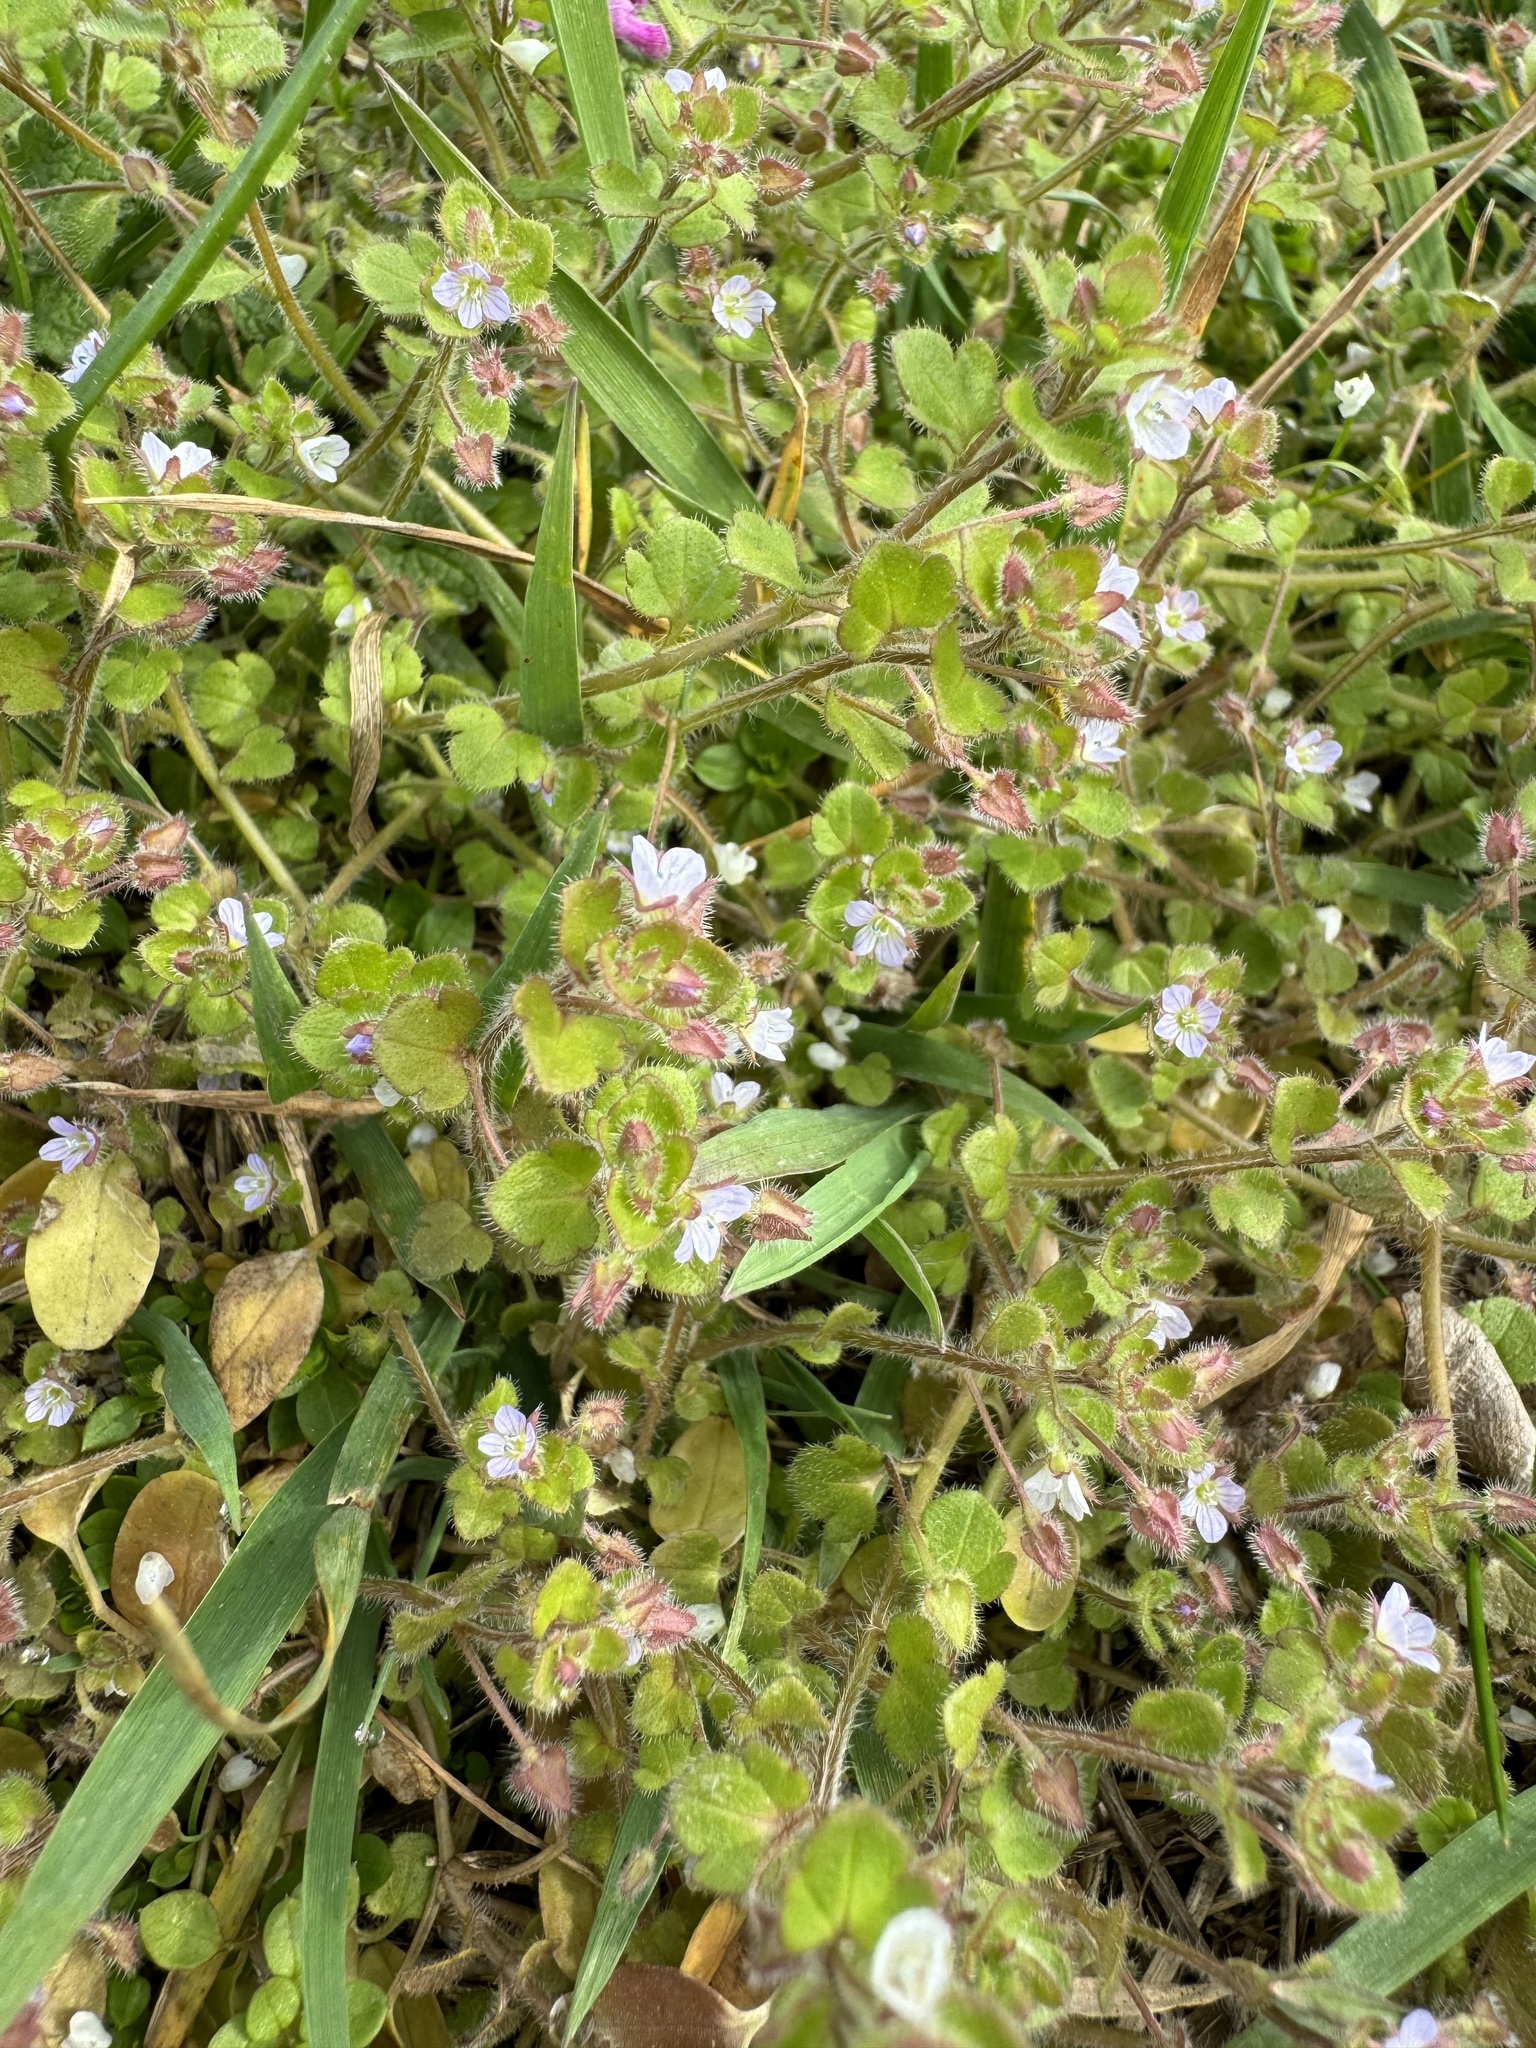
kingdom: Plantae
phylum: Tracheophyta
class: Magnoliopsida
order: Lamiales
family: Plantaginaceae
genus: Veronica
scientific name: Veronica sublobata
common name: False ivy-leaved speedwell
